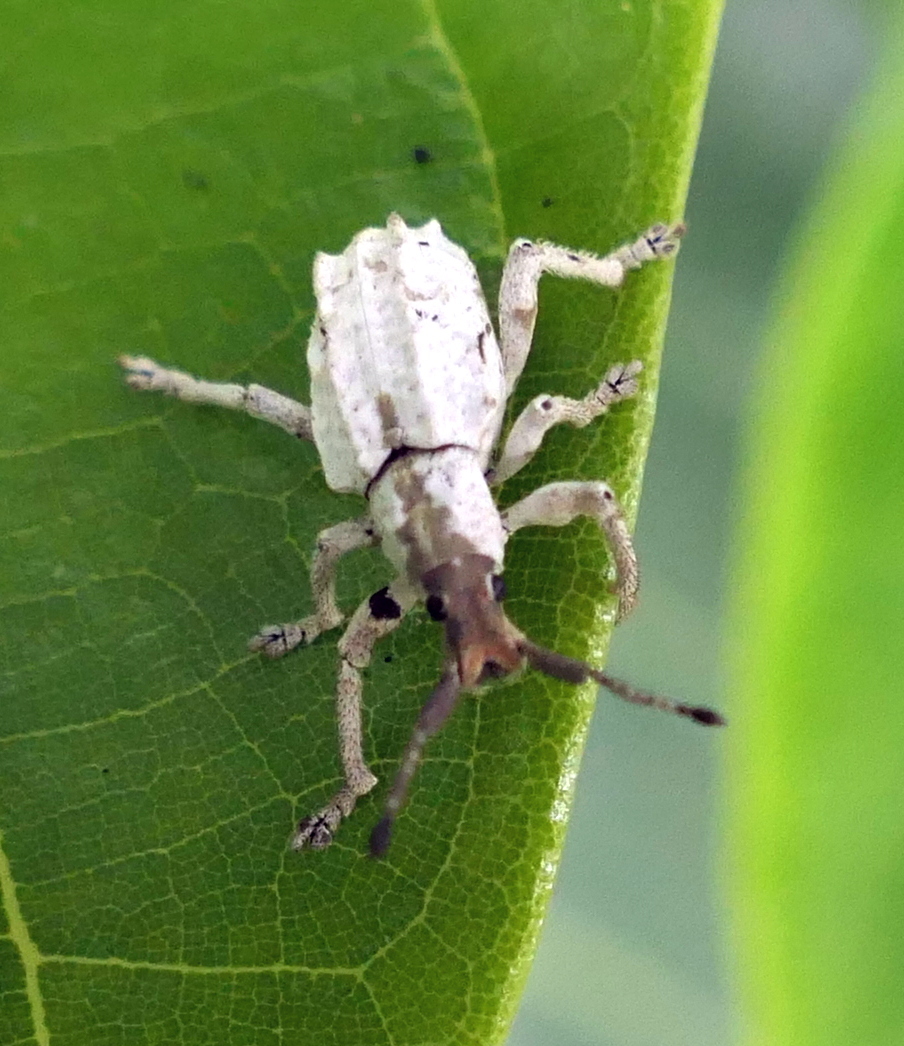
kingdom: Animalia
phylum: Arthropoda
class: Insecta
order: Coleoptera
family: Curculionidae
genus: Compsus
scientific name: Compsus niveus
